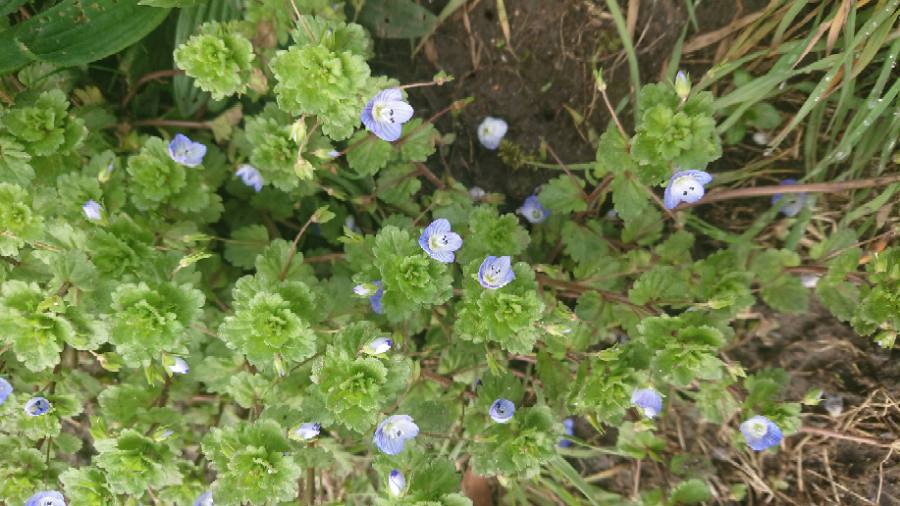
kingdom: Plantae
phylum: Tracheophyta
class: Magnoliopsida
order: Lamiales
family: Plantaginaceae
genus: Veronica
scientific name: Veronica persica
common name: Common field-speedwell
